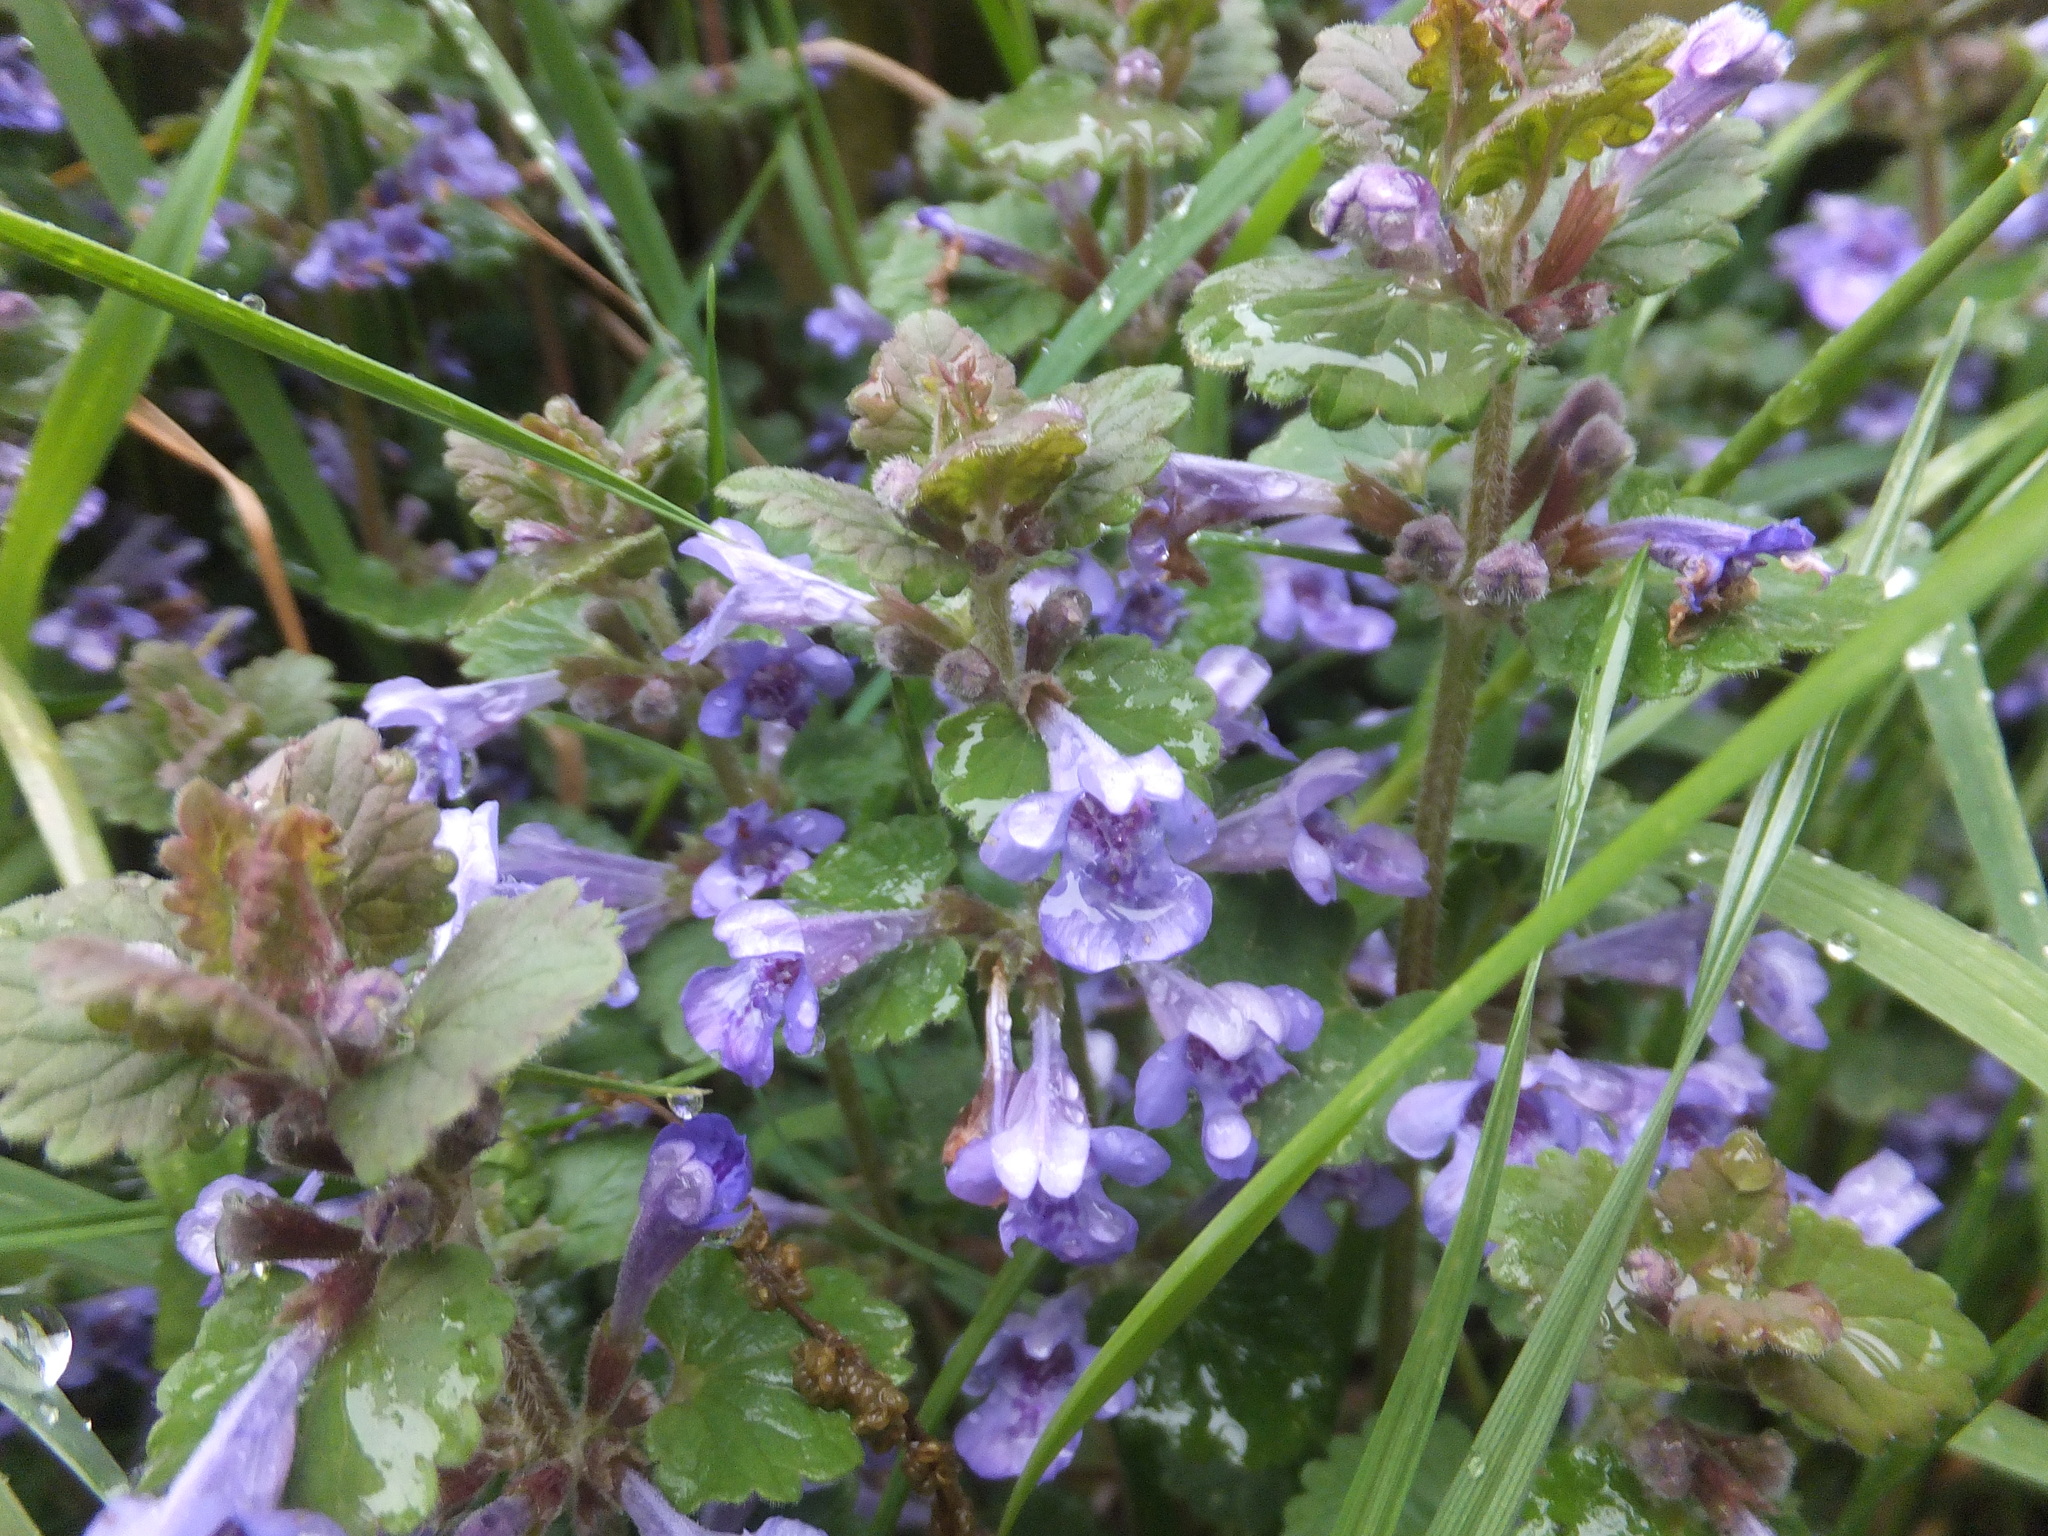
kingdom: Plantae
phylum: Tracheophyta
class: Magnoliopsida
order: Lamiales
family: Lamiaceae
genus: Glechoma
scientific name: Glechoma hederacea
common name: Ground ivy
